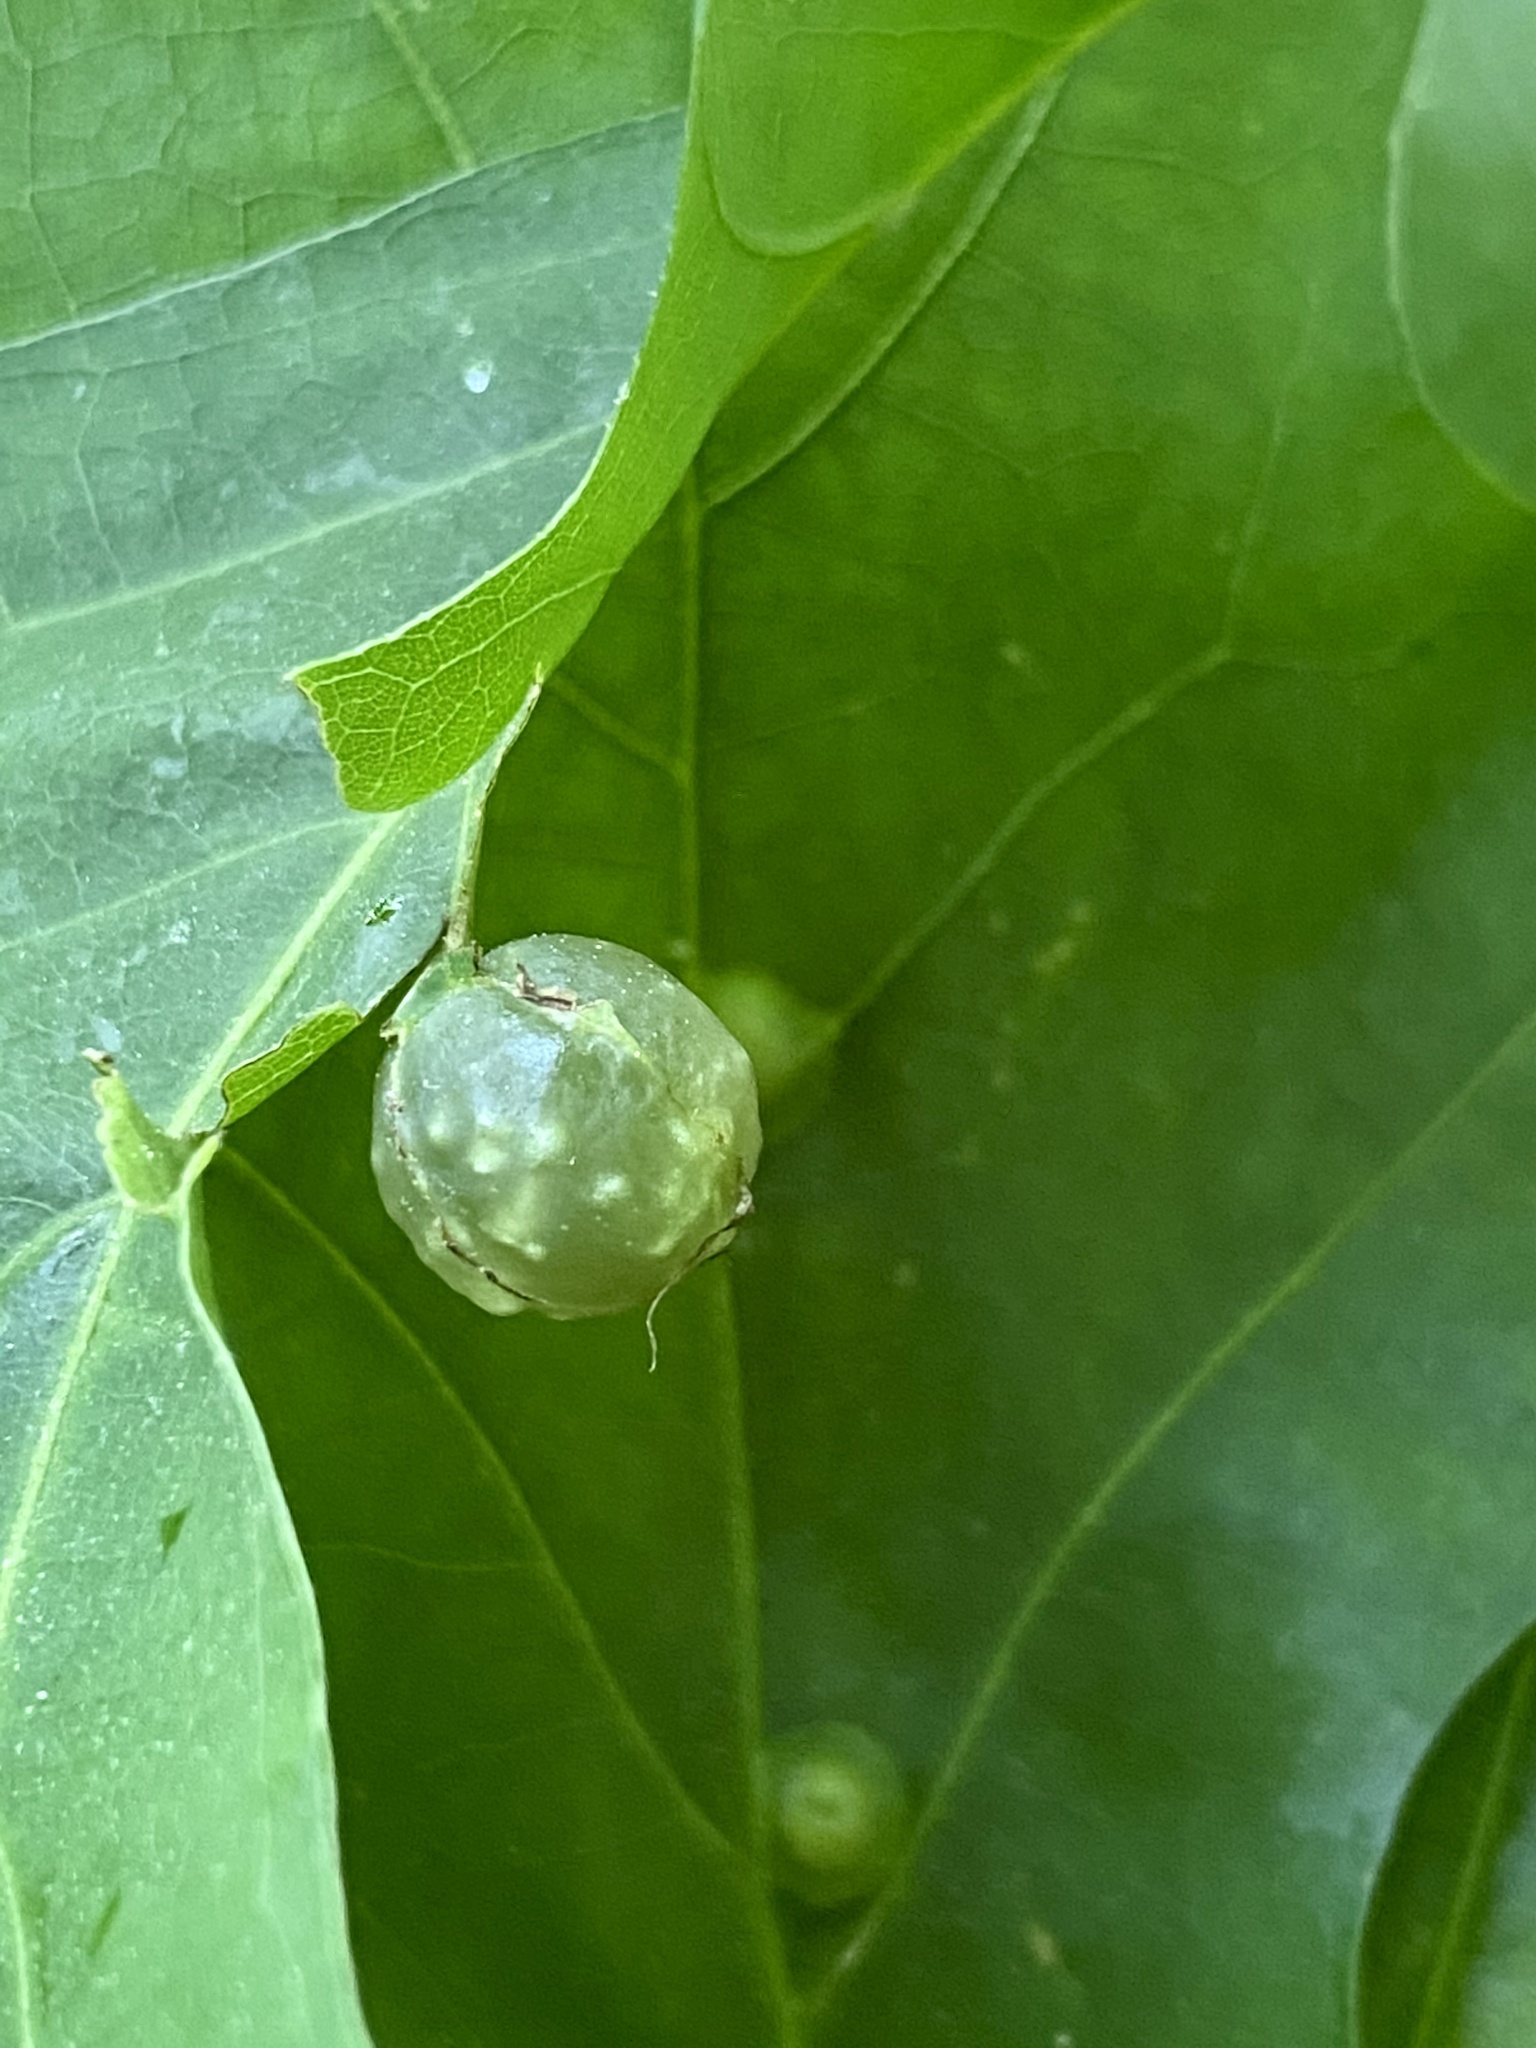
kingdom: Animalia
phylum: Arthropoda
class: Insecta
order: Hymenoptera
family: Cynipidae
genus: Dryocosmus
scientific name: Dryocosmus quercuspalustris
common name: Succulent oak gall wasp
